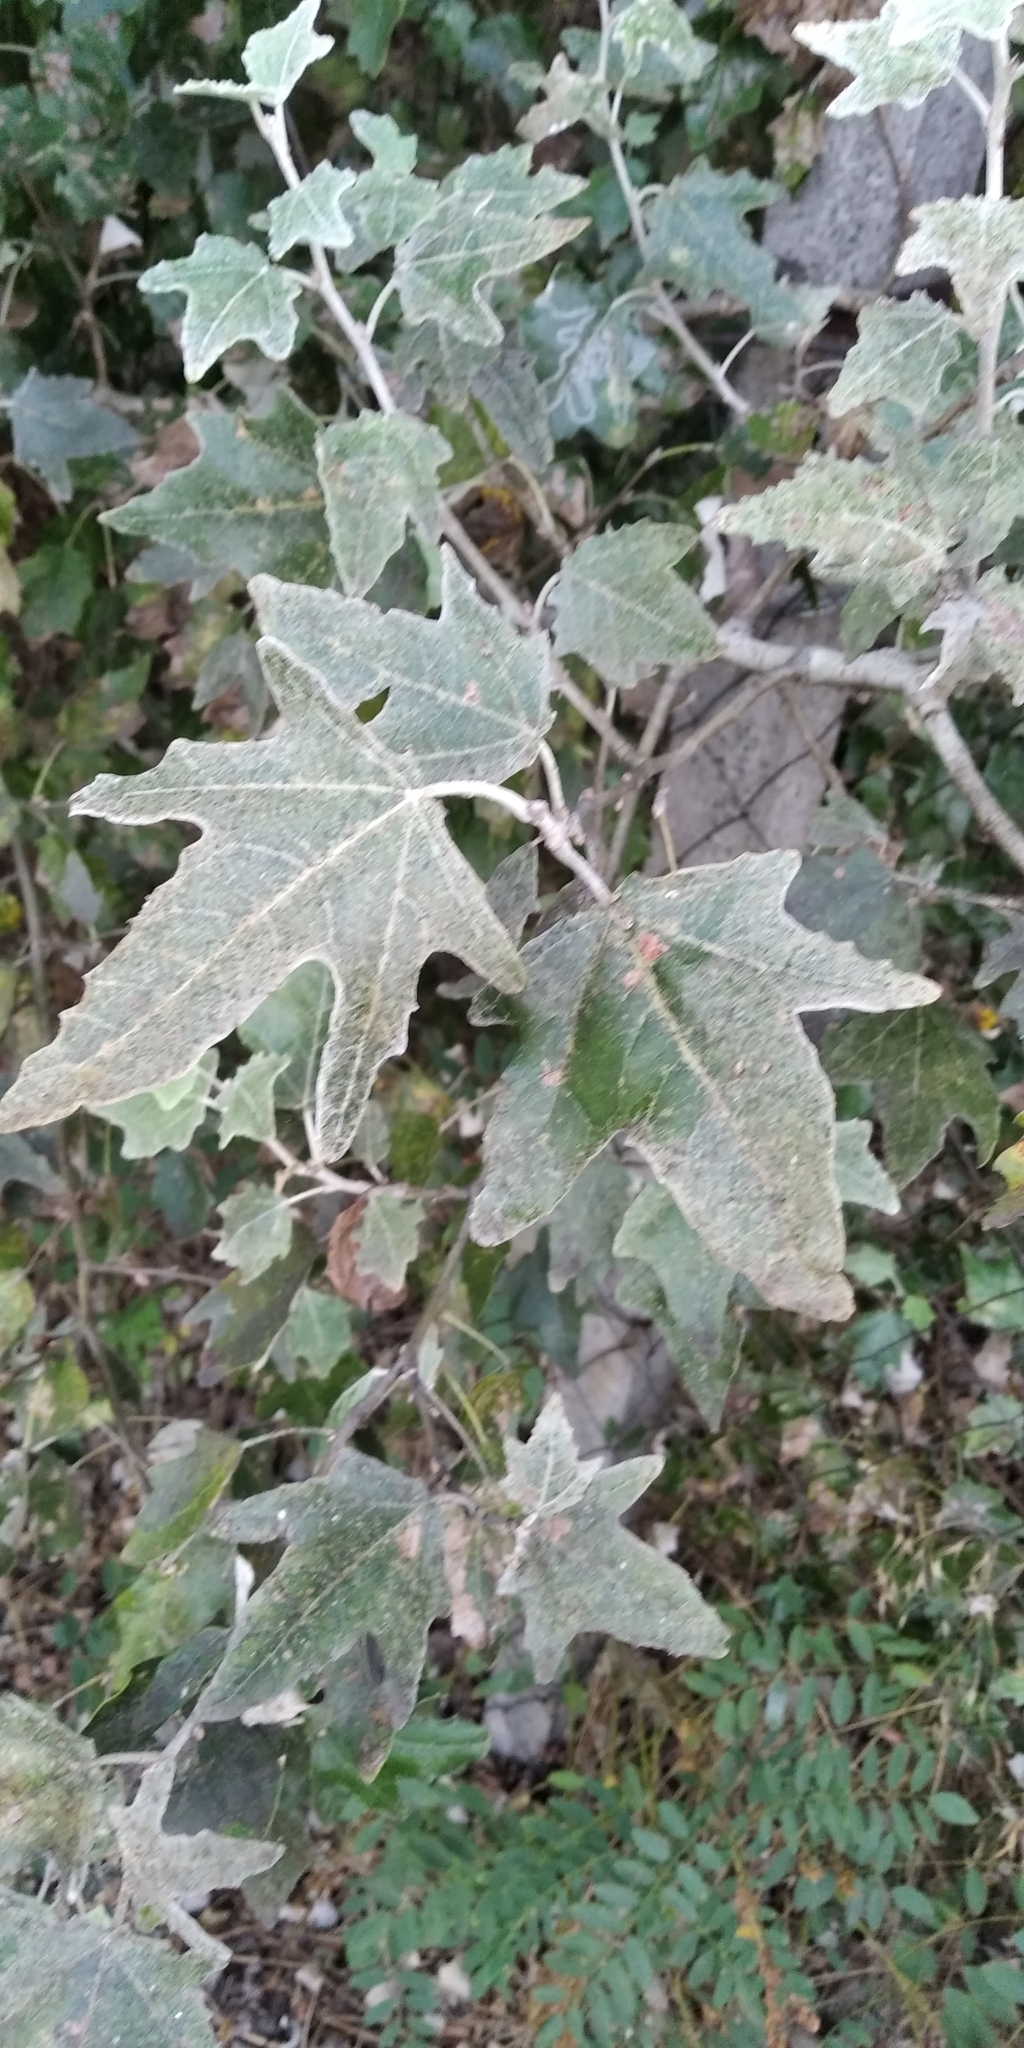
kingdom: Plantae
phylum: Tracheophyta
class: Magnoliopsida
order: Malpighiales
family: Salicaceae
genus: Populus
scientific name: Populus alba
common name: White poplar
